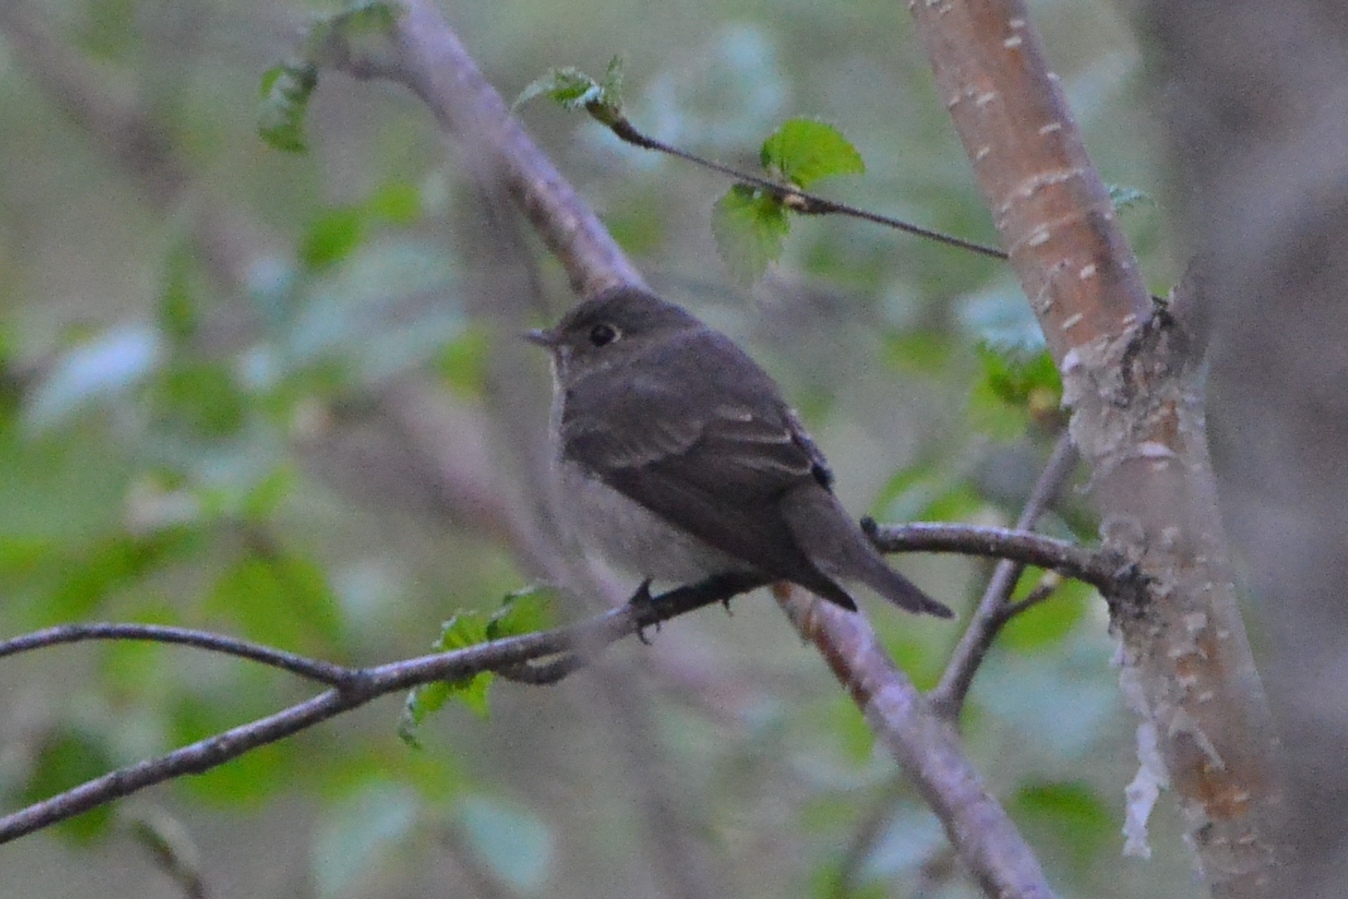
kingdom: Animalia
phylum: Chordata
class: Aves
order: Passeriformes
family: Muscicapidae
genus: Muscicapa
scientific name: Muscicapa sibirica
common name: Dark-sided flycatcher
